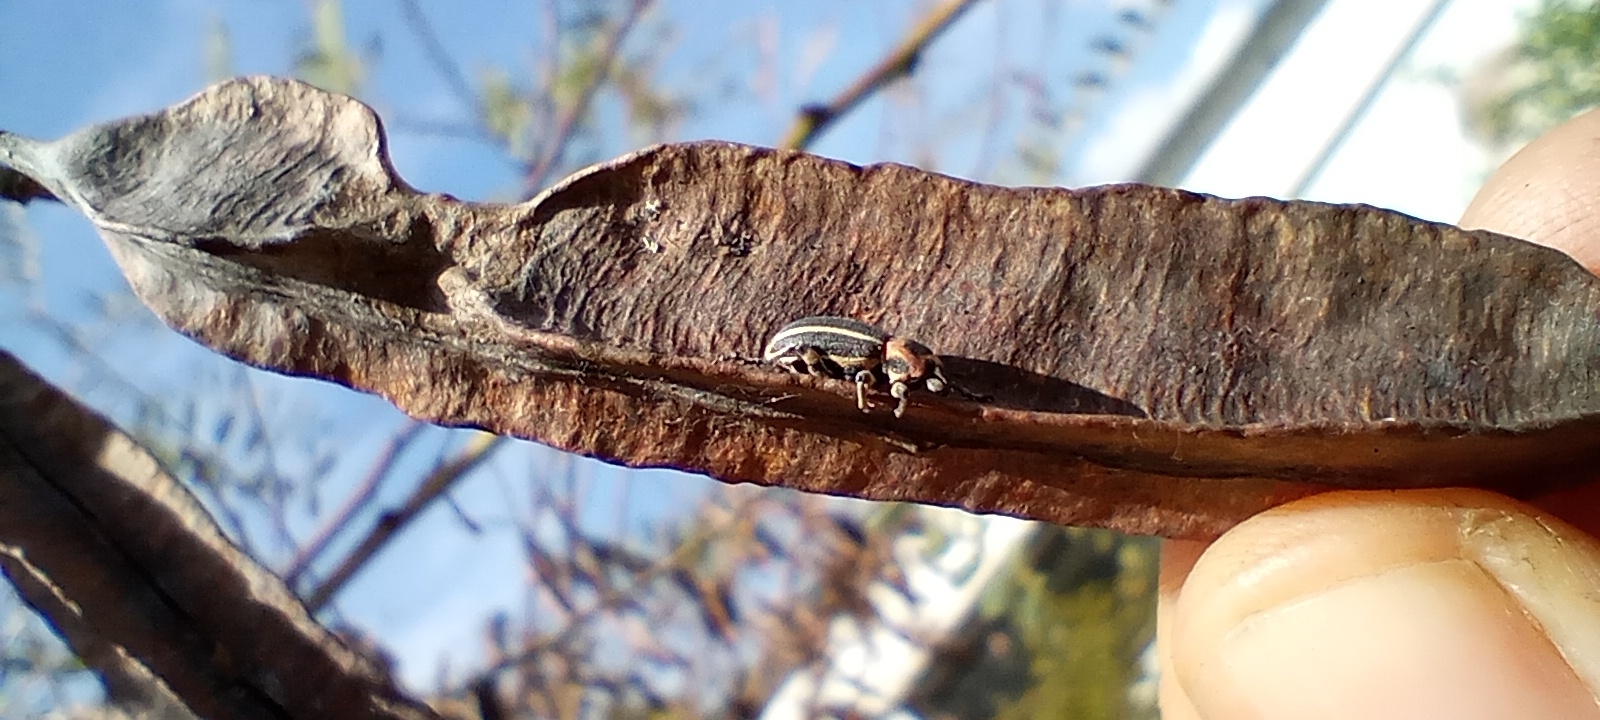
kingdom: Animalia
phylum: Arthropoda
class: Insecta
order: Coleoptera
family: Curculionidae
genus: Eudiagogus
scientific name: Eudiagogus episcopalis
